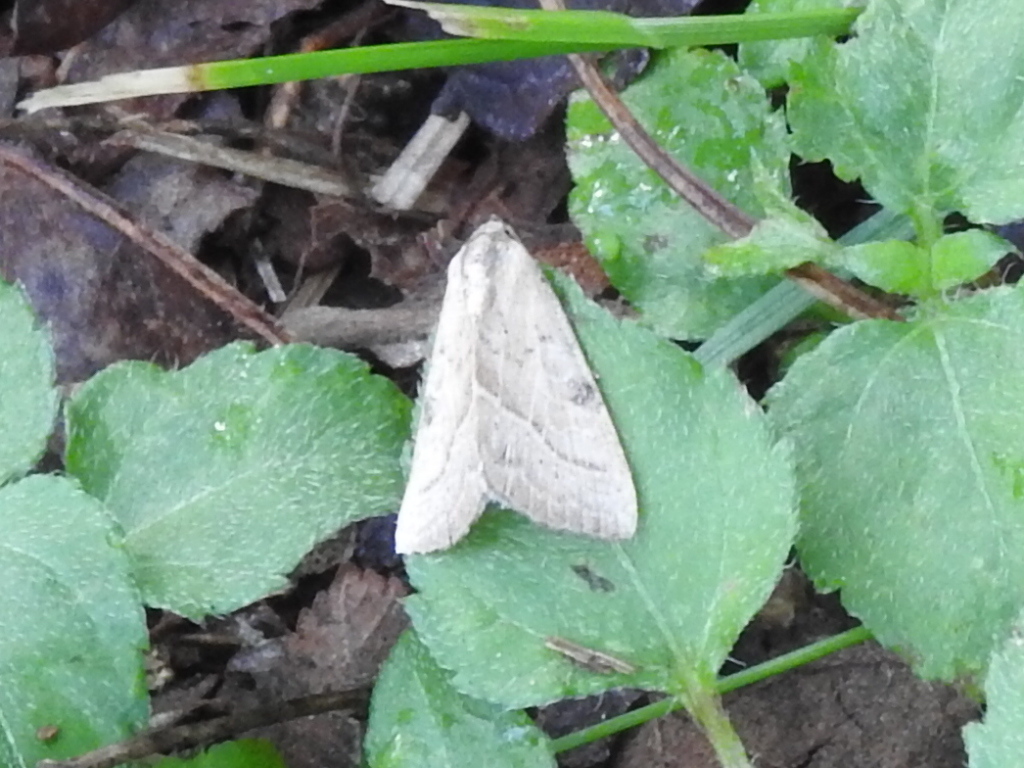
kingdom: Animalia
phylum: Arthropoda
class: Insecta
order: Lepidoptera
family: Noctuidae
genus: Galgula
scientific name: Galgula partita
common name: Wedgeling
